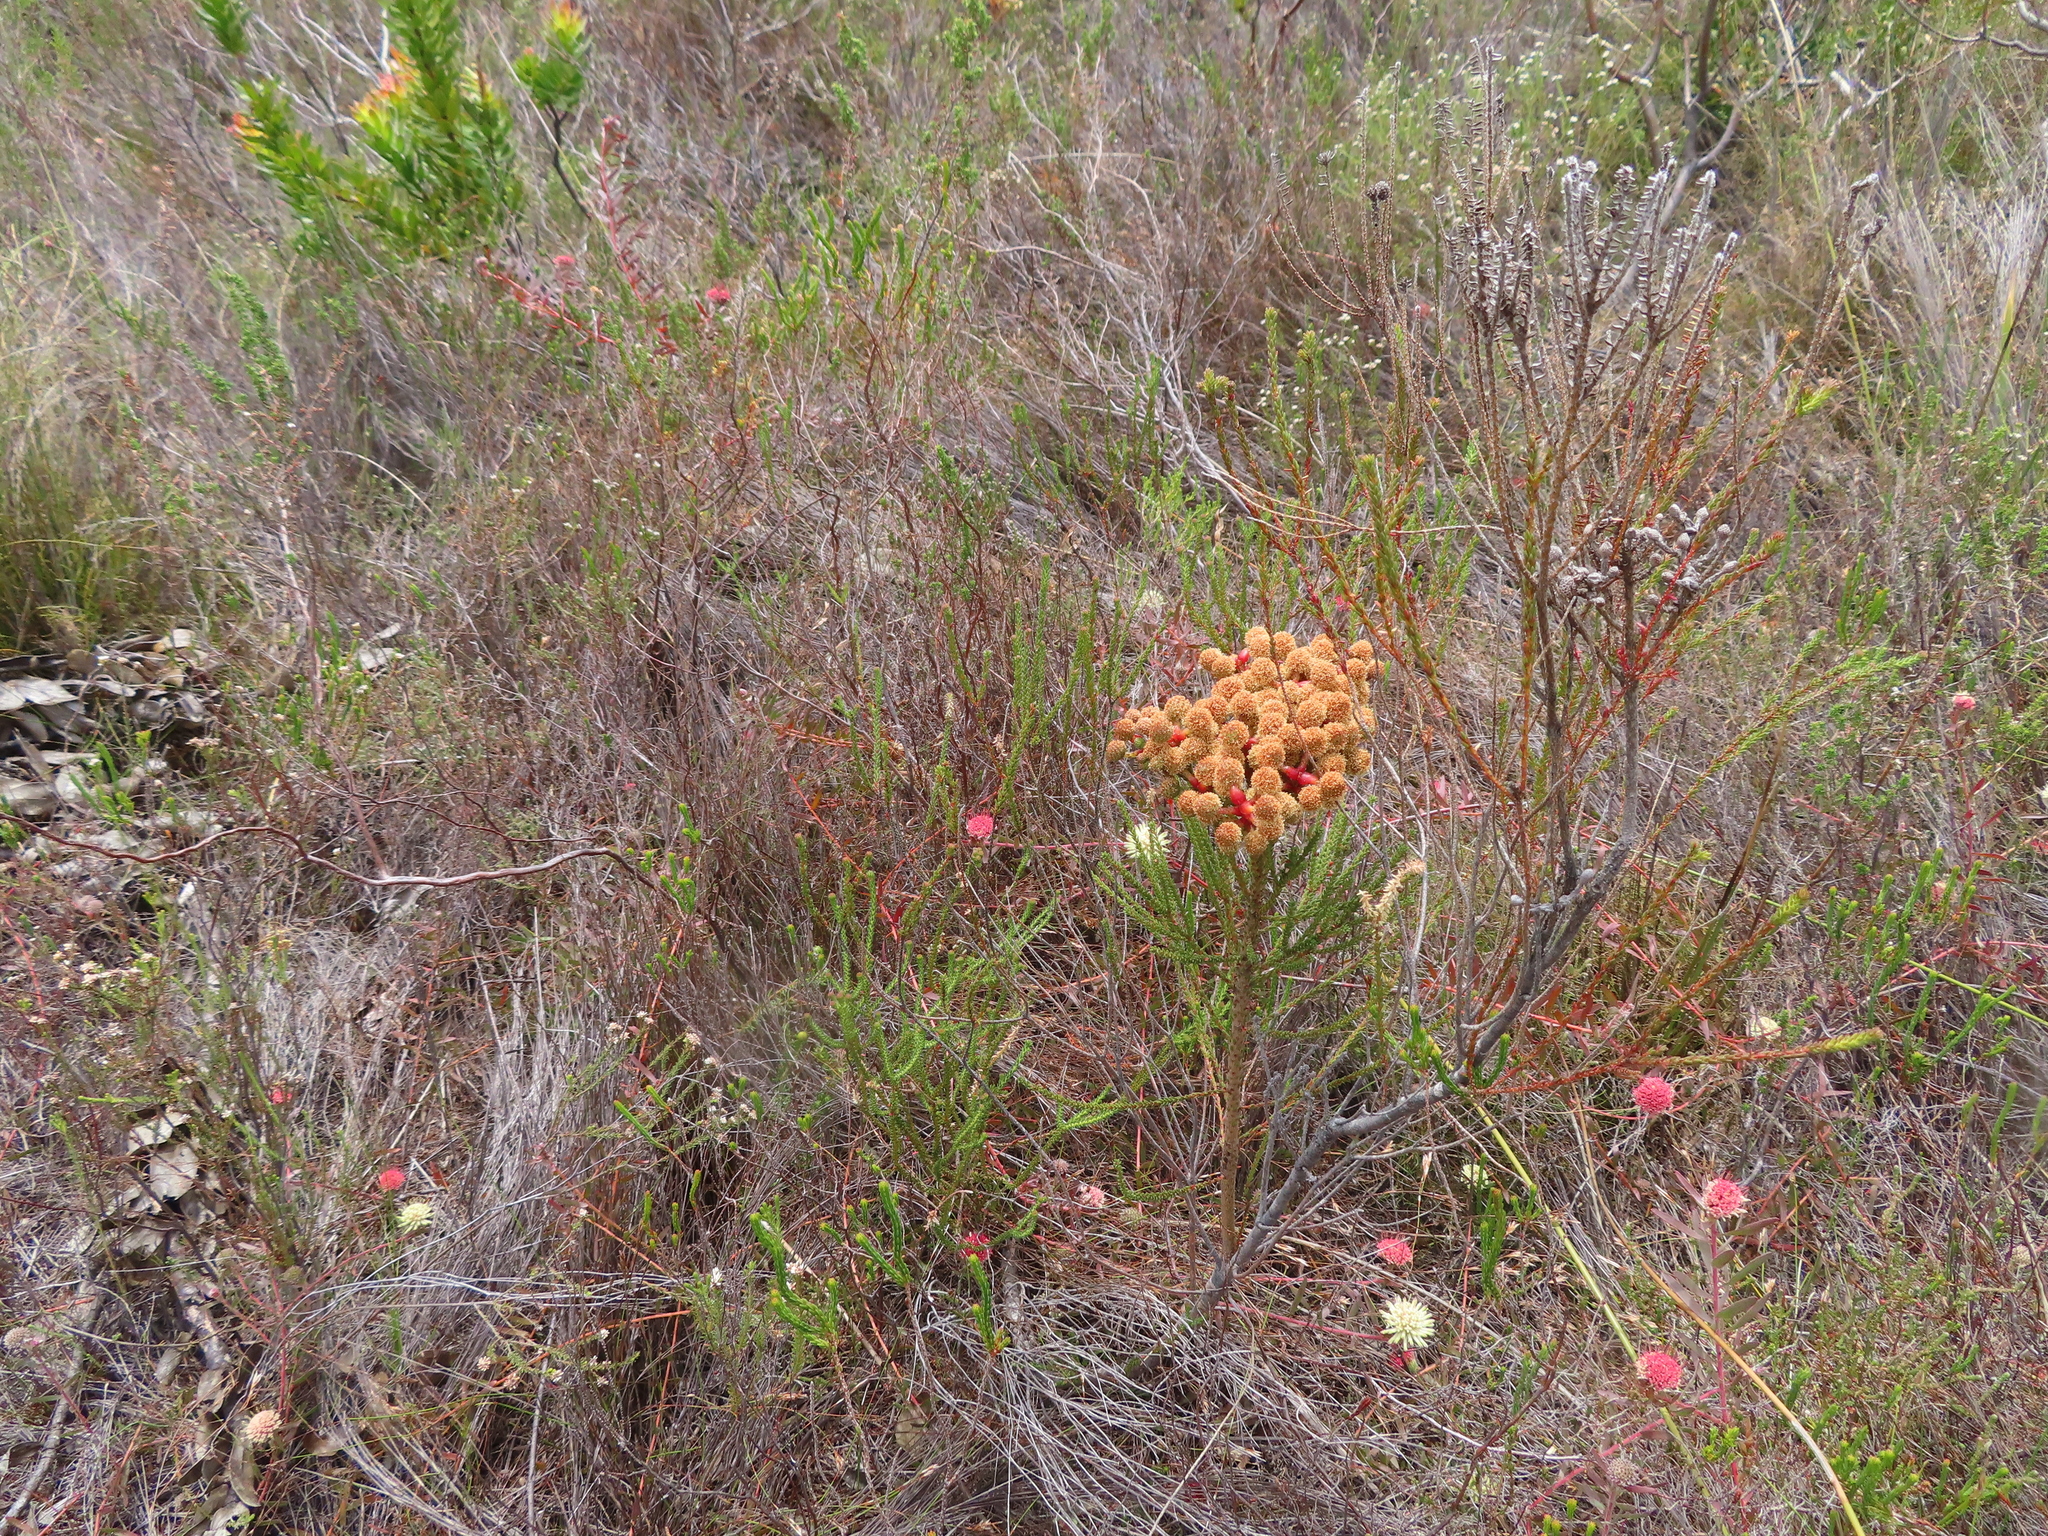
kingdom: Plantae
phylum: Tracheophyta
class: Magnoliopsida
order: Bruniales
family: Bruniaceae
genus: Berzelia
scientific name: Berzelia abrotanoides
